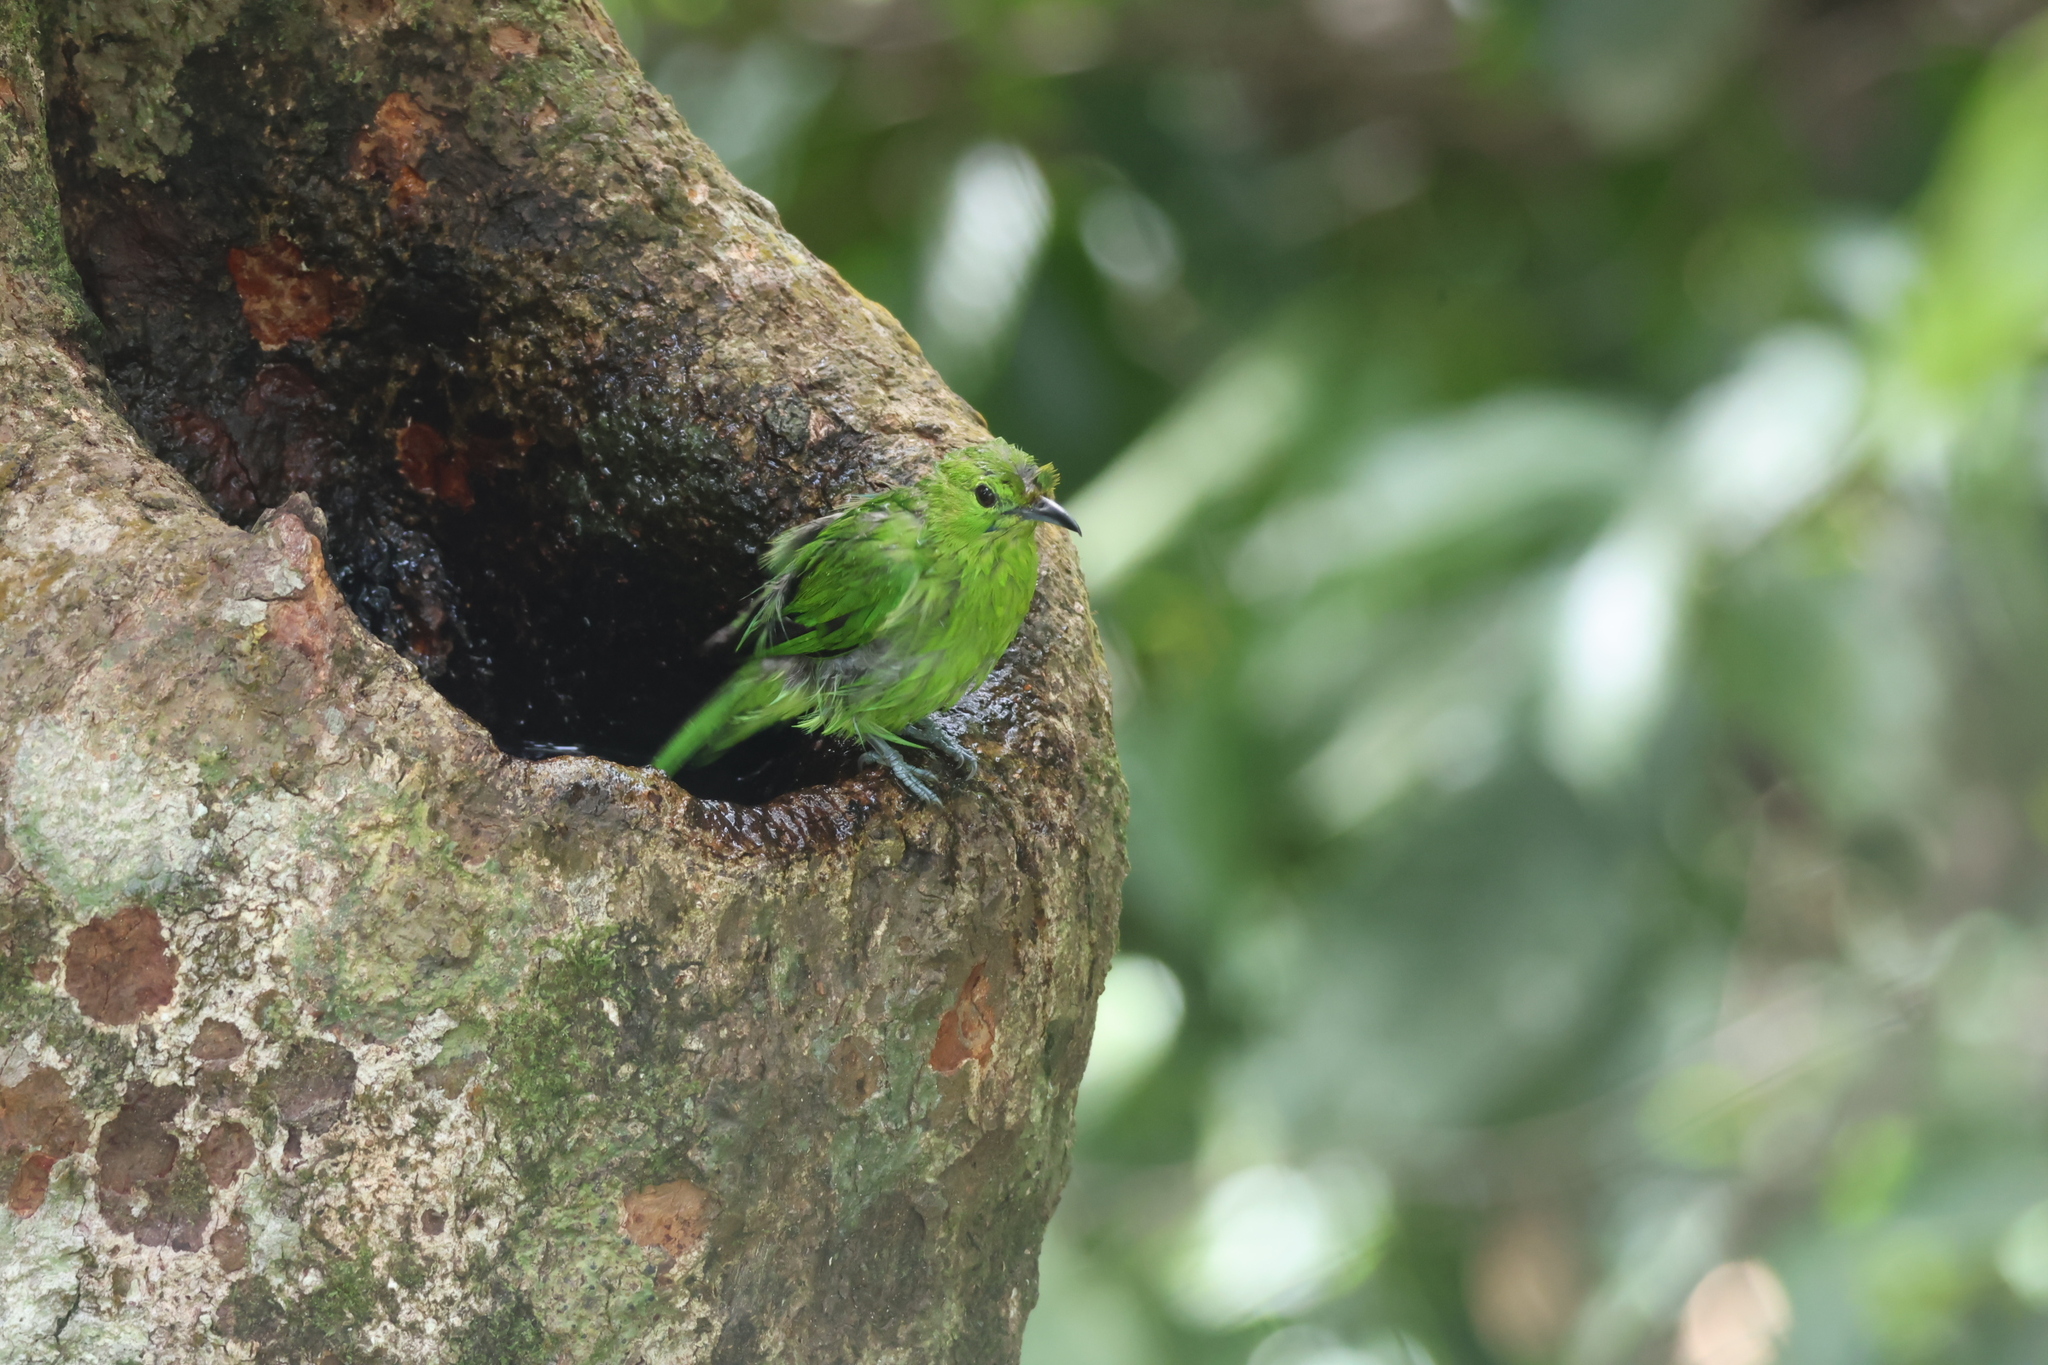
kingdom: Animalia
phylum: Chordata
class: Aves
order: Passeriformes
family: Chloropseidae
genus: Chloropsis
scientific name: Chloropsis cyanopogon
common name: Lesser green leafbird
